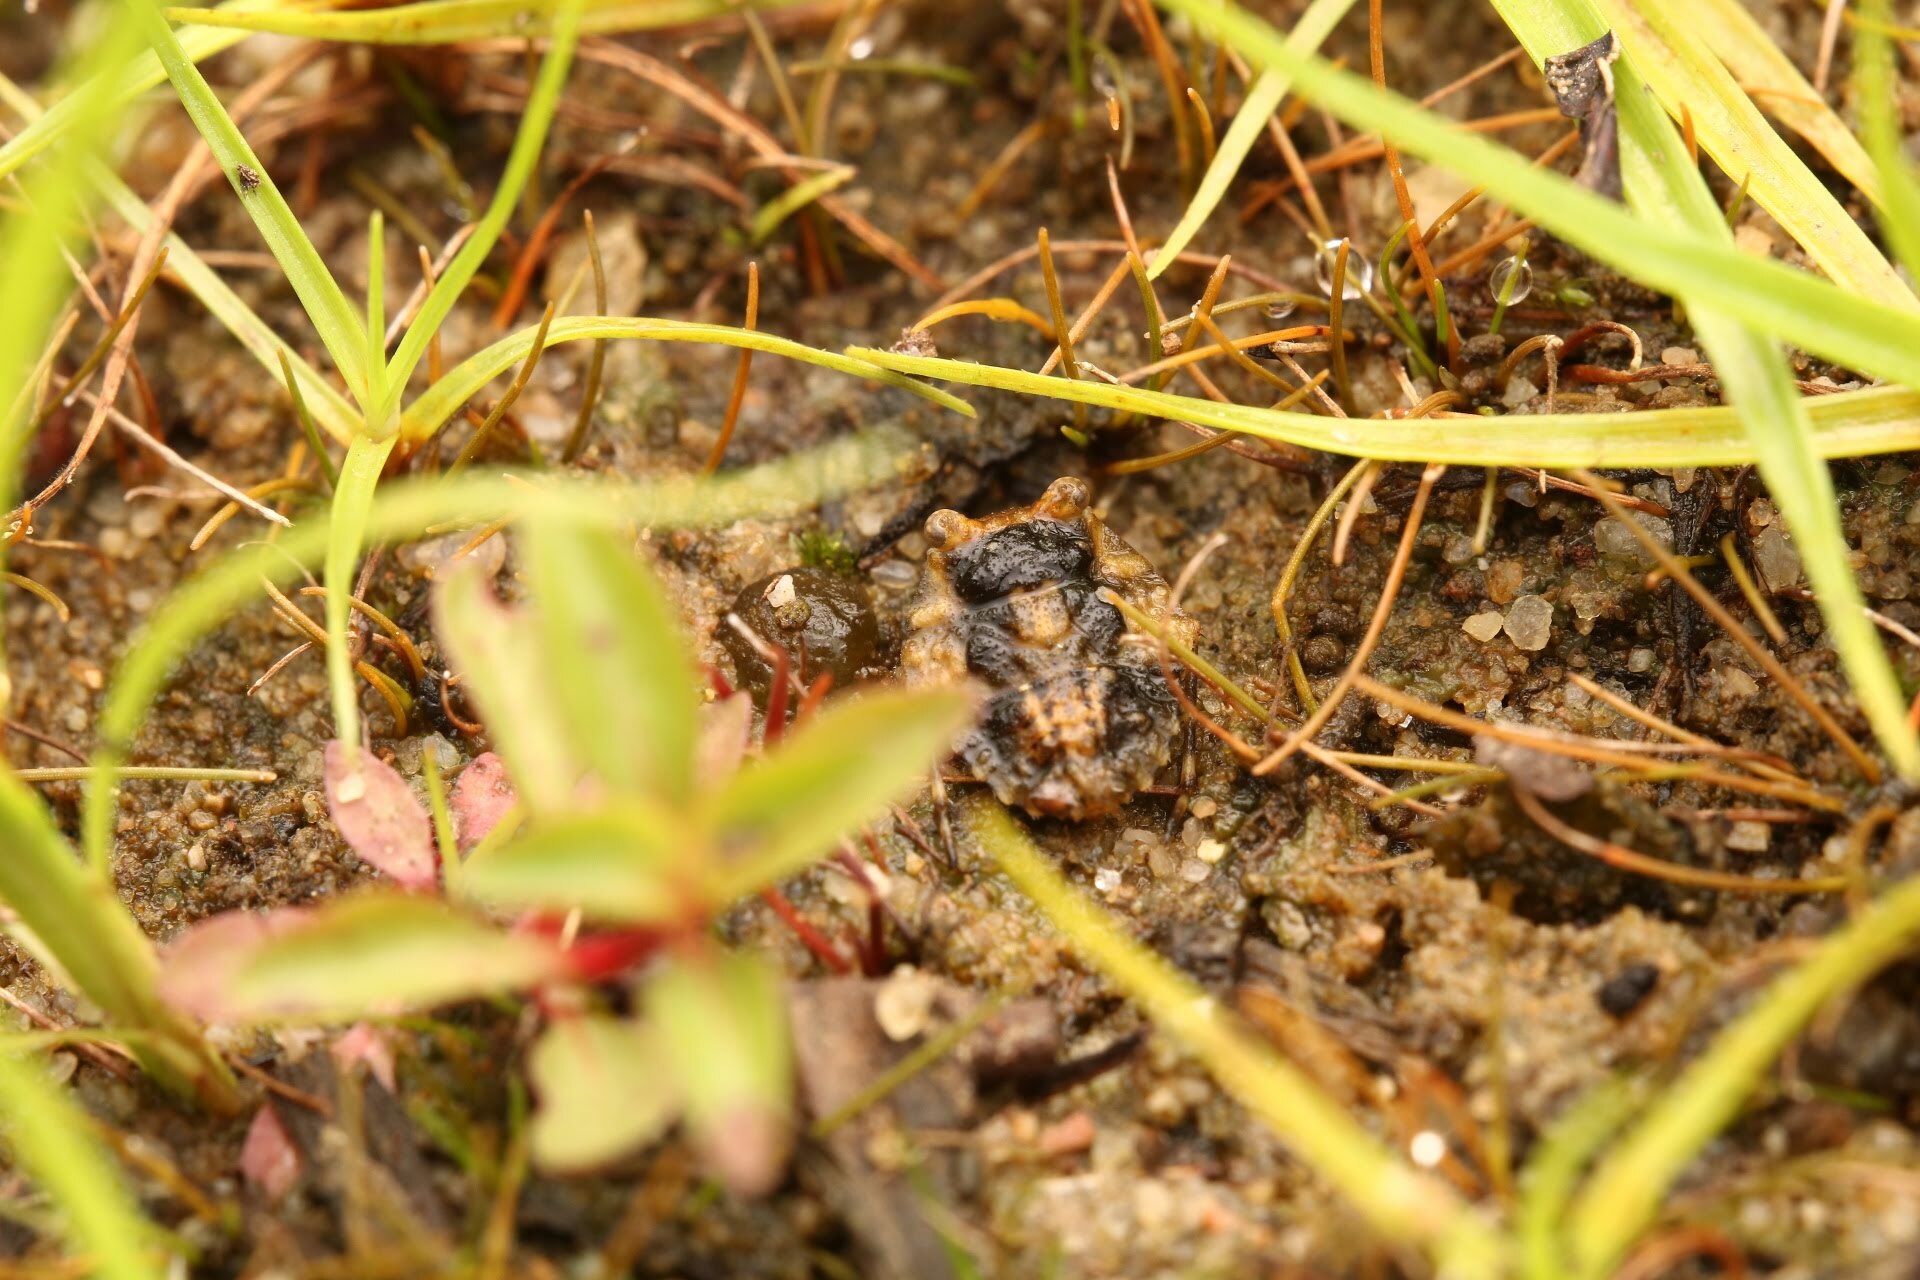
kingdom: Animalia
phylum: Arthropoda
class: Insecta
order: Hemiptera
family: Gelastocoridae
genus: Gelastocoris
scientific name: Gelastocoris oculatus
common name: Toad bug
